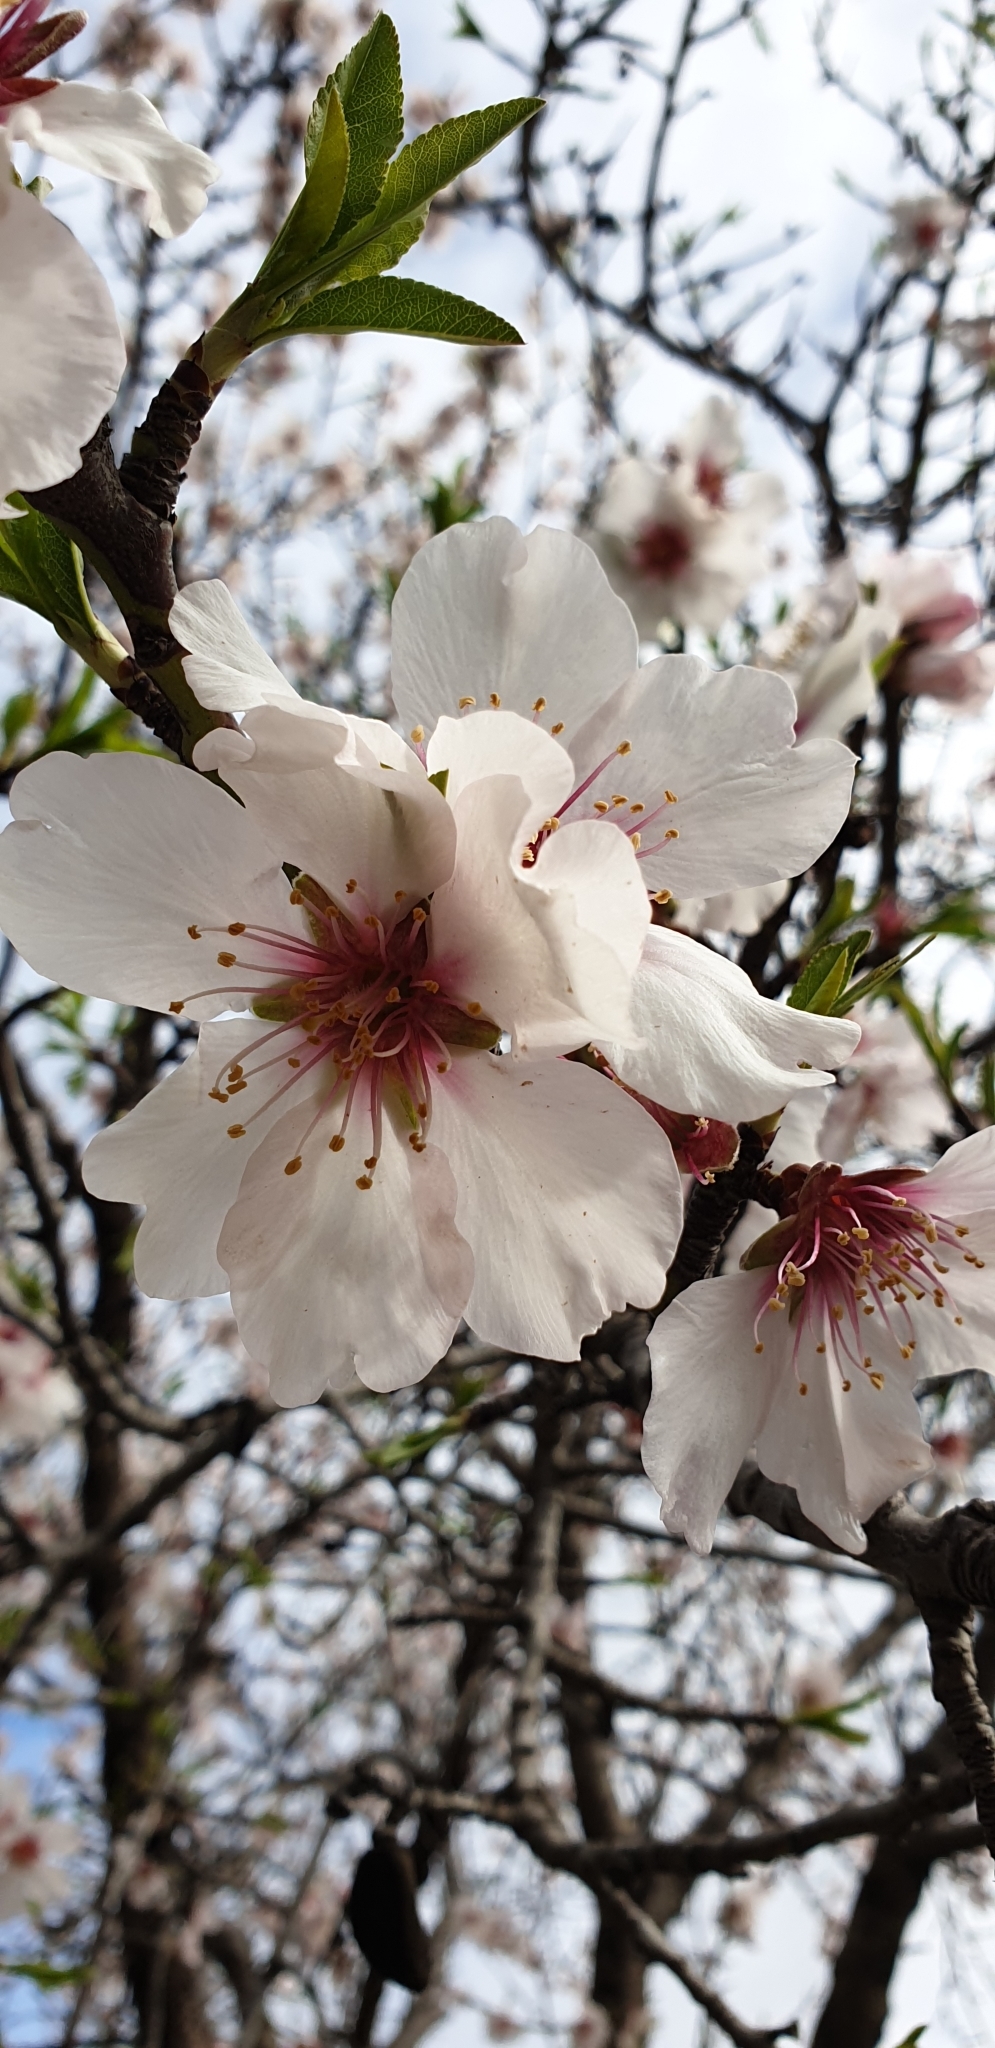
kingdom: Plantae
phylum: Tracheophyta
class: Magnoliopsida
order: Rosales
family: Rosaceae
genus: Prunus
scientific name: Prunus amygdalus
